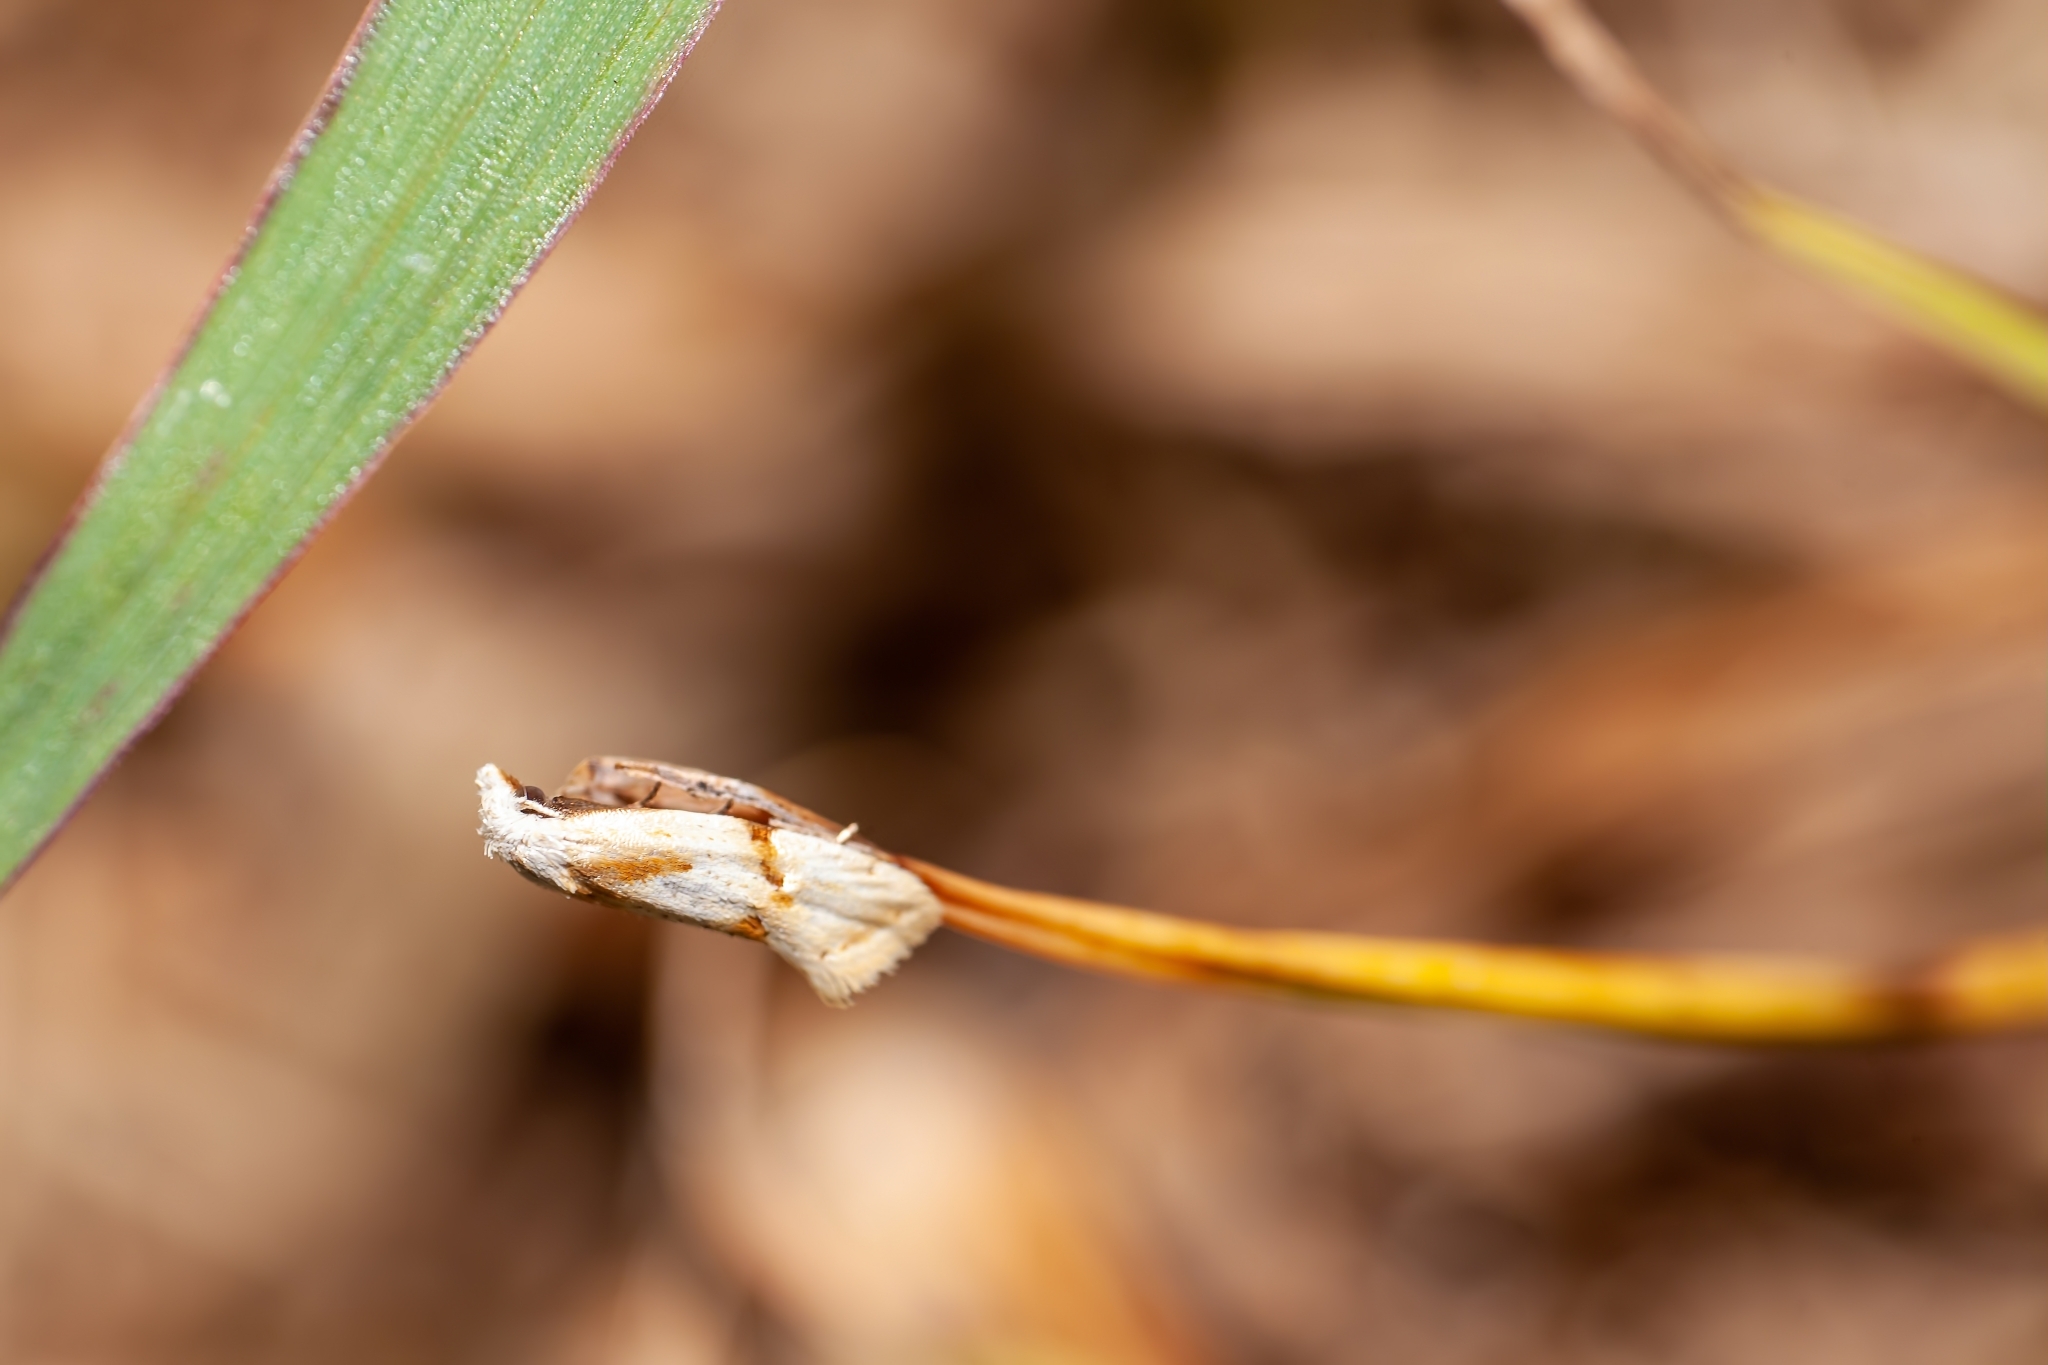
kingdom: Animalia
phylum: Arthropoda
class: Insecta
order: Lepidoptera
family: Tortricidae
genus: Aethes
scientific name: Aethes seriatana
